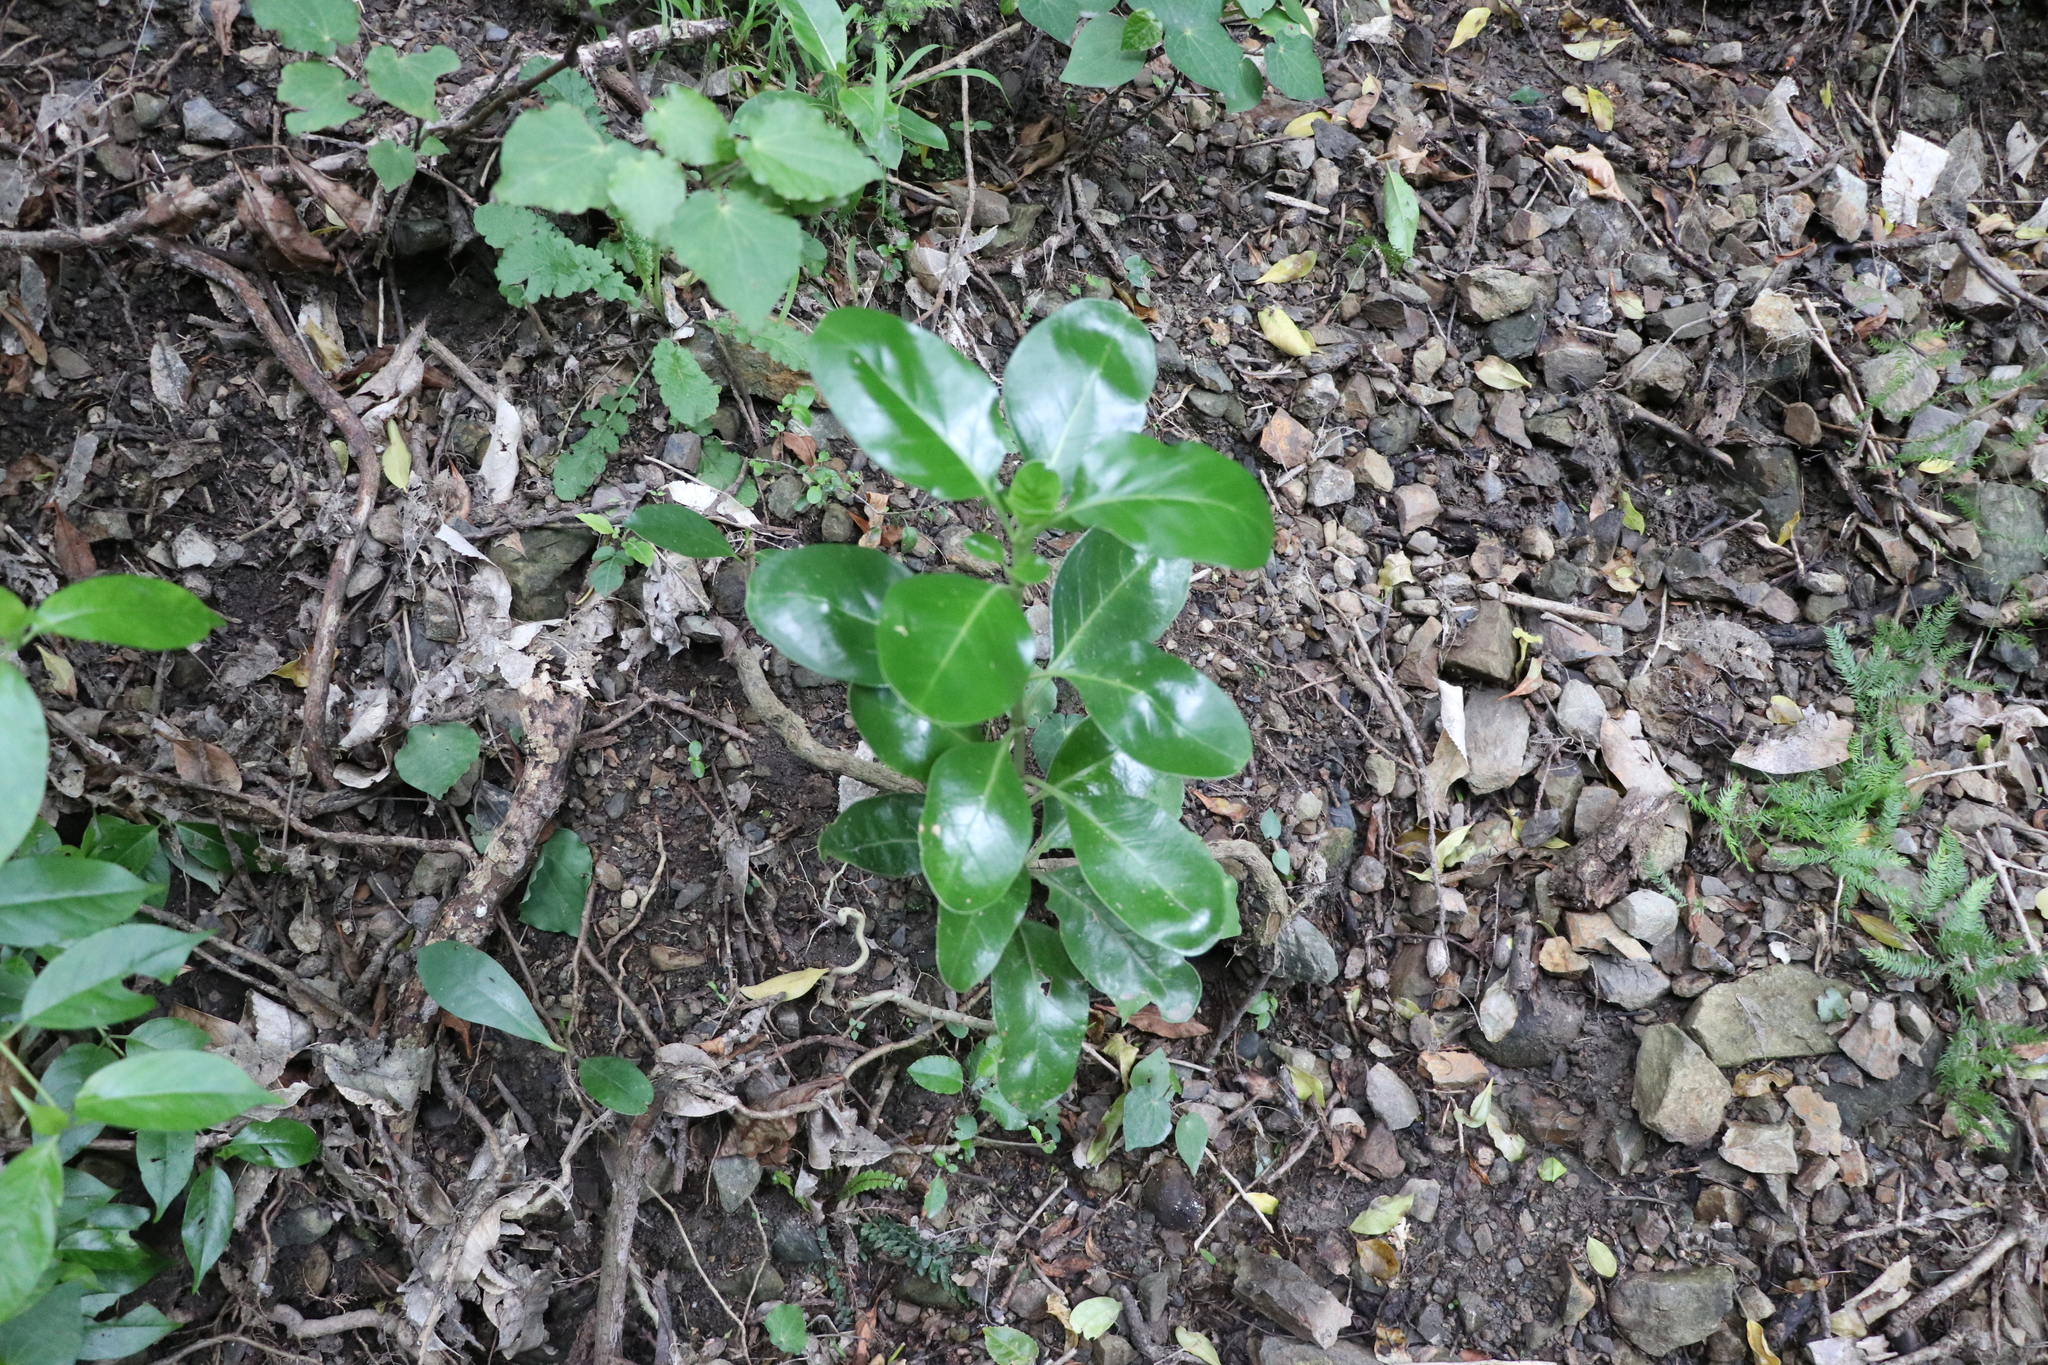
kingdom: Plantae
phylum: Tracheophyta
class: Magnoliopsida
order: Gentianales
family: Rubiaceae
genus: Coprosma
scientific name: Coprosma repens
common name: Tree bedstraw
